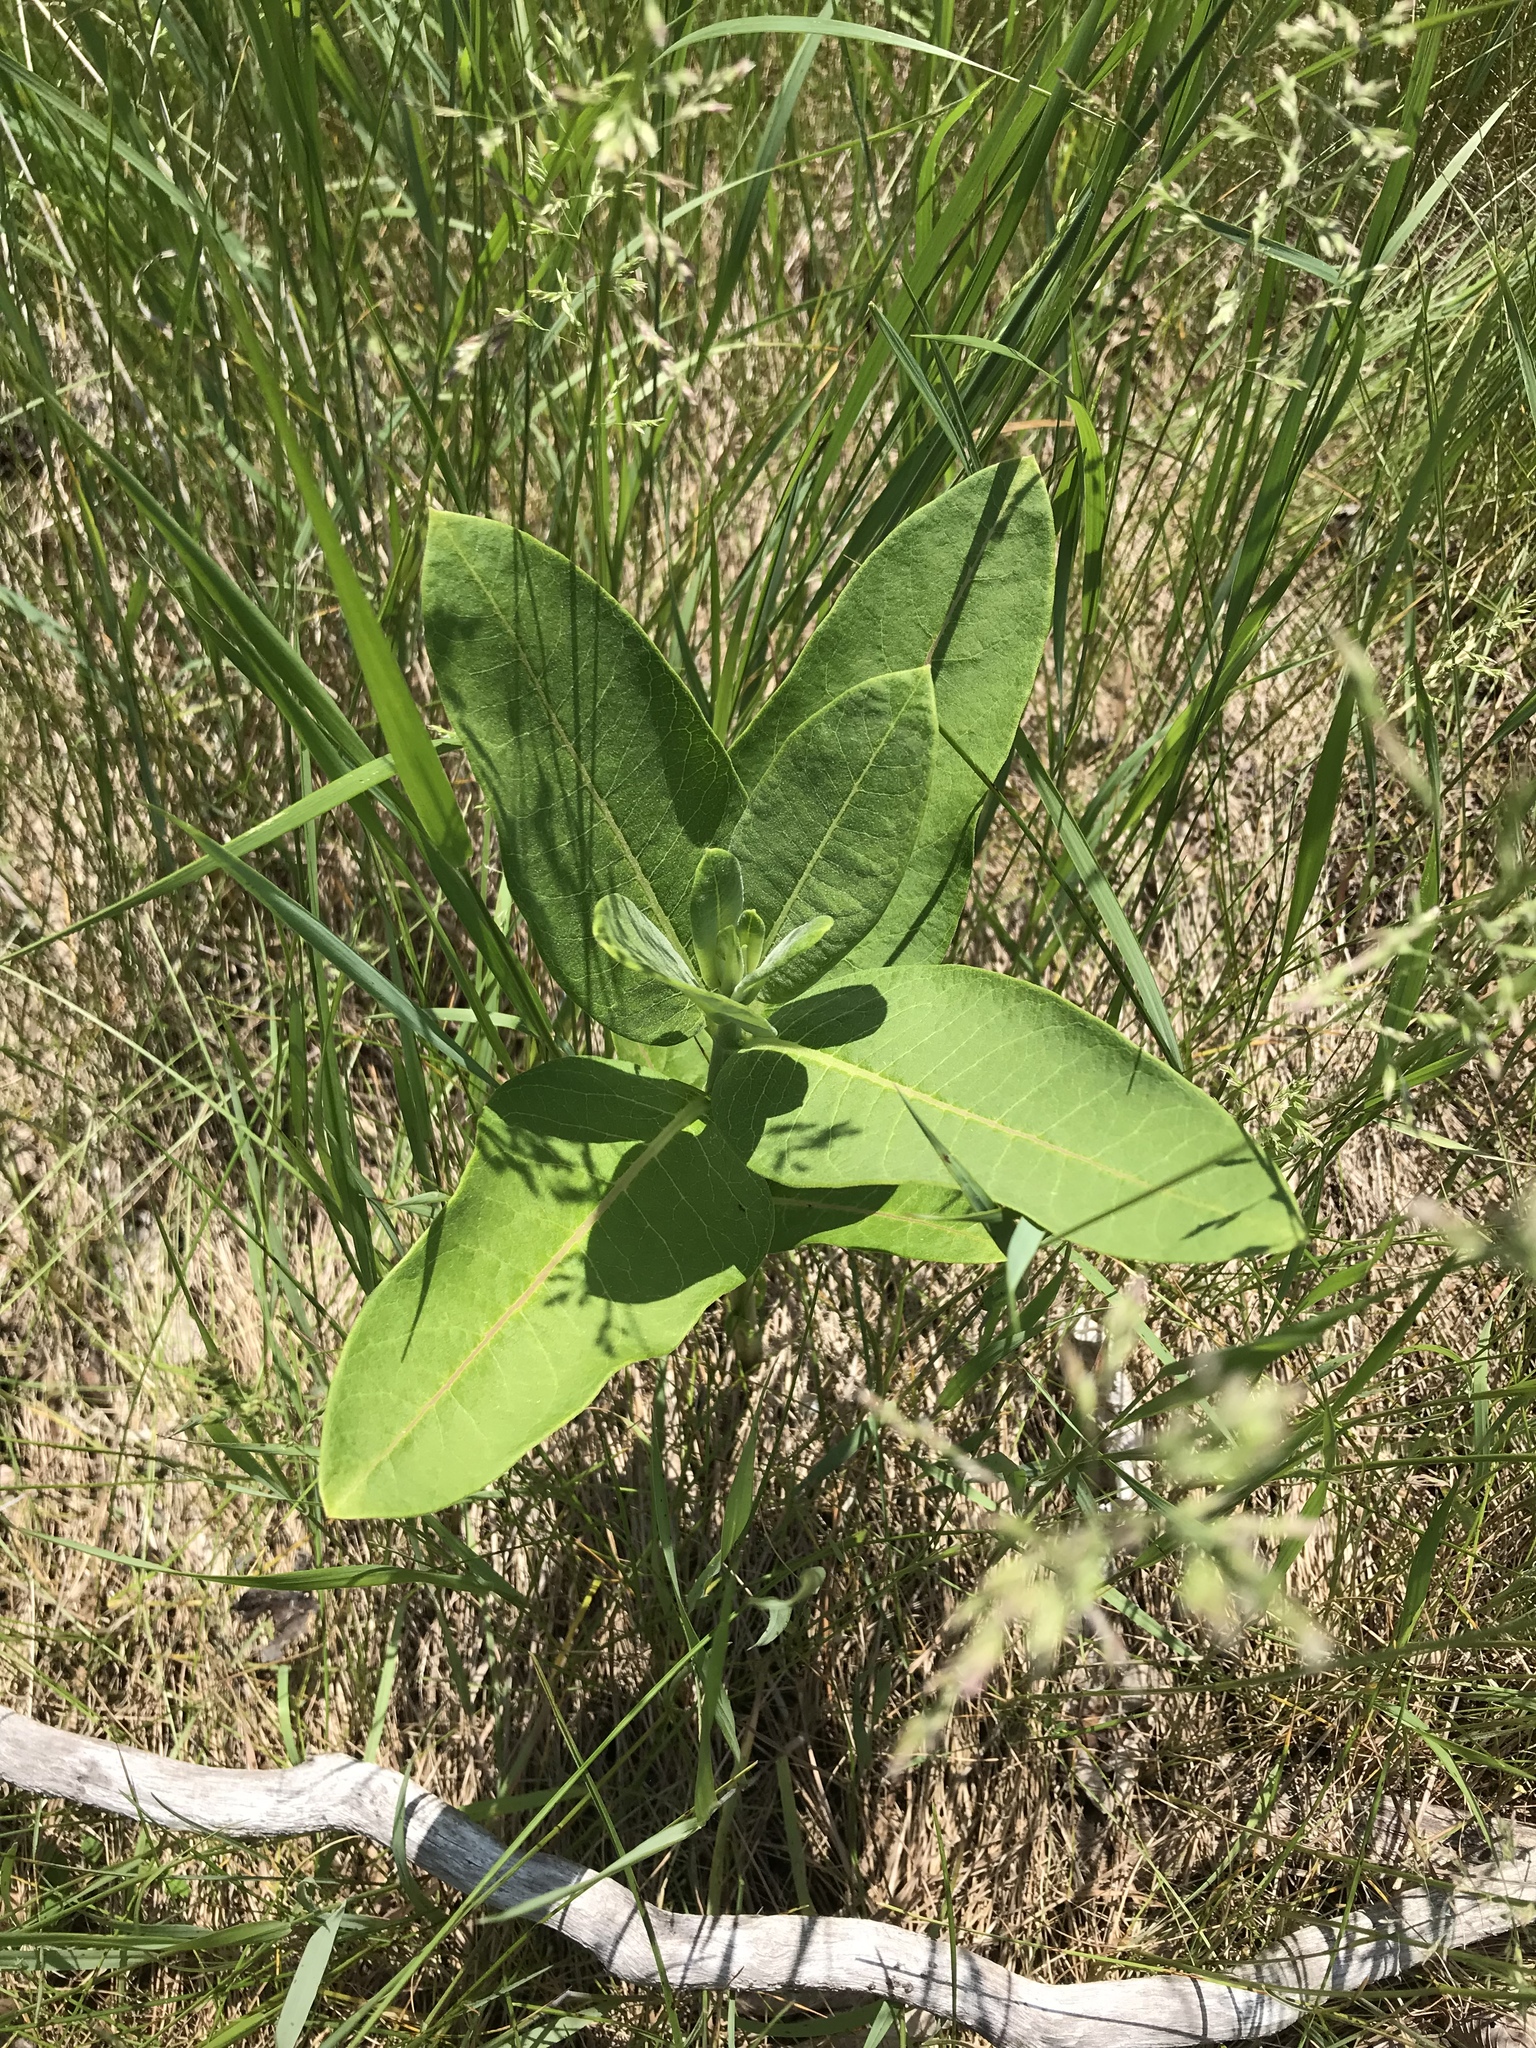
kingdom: Plantae
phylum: Tracheophyta
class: Magnoliopsida
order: Gentianales
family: Apocynaceae
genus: Asclepias
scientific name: Asclepias syriaca
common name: Common milkweed
